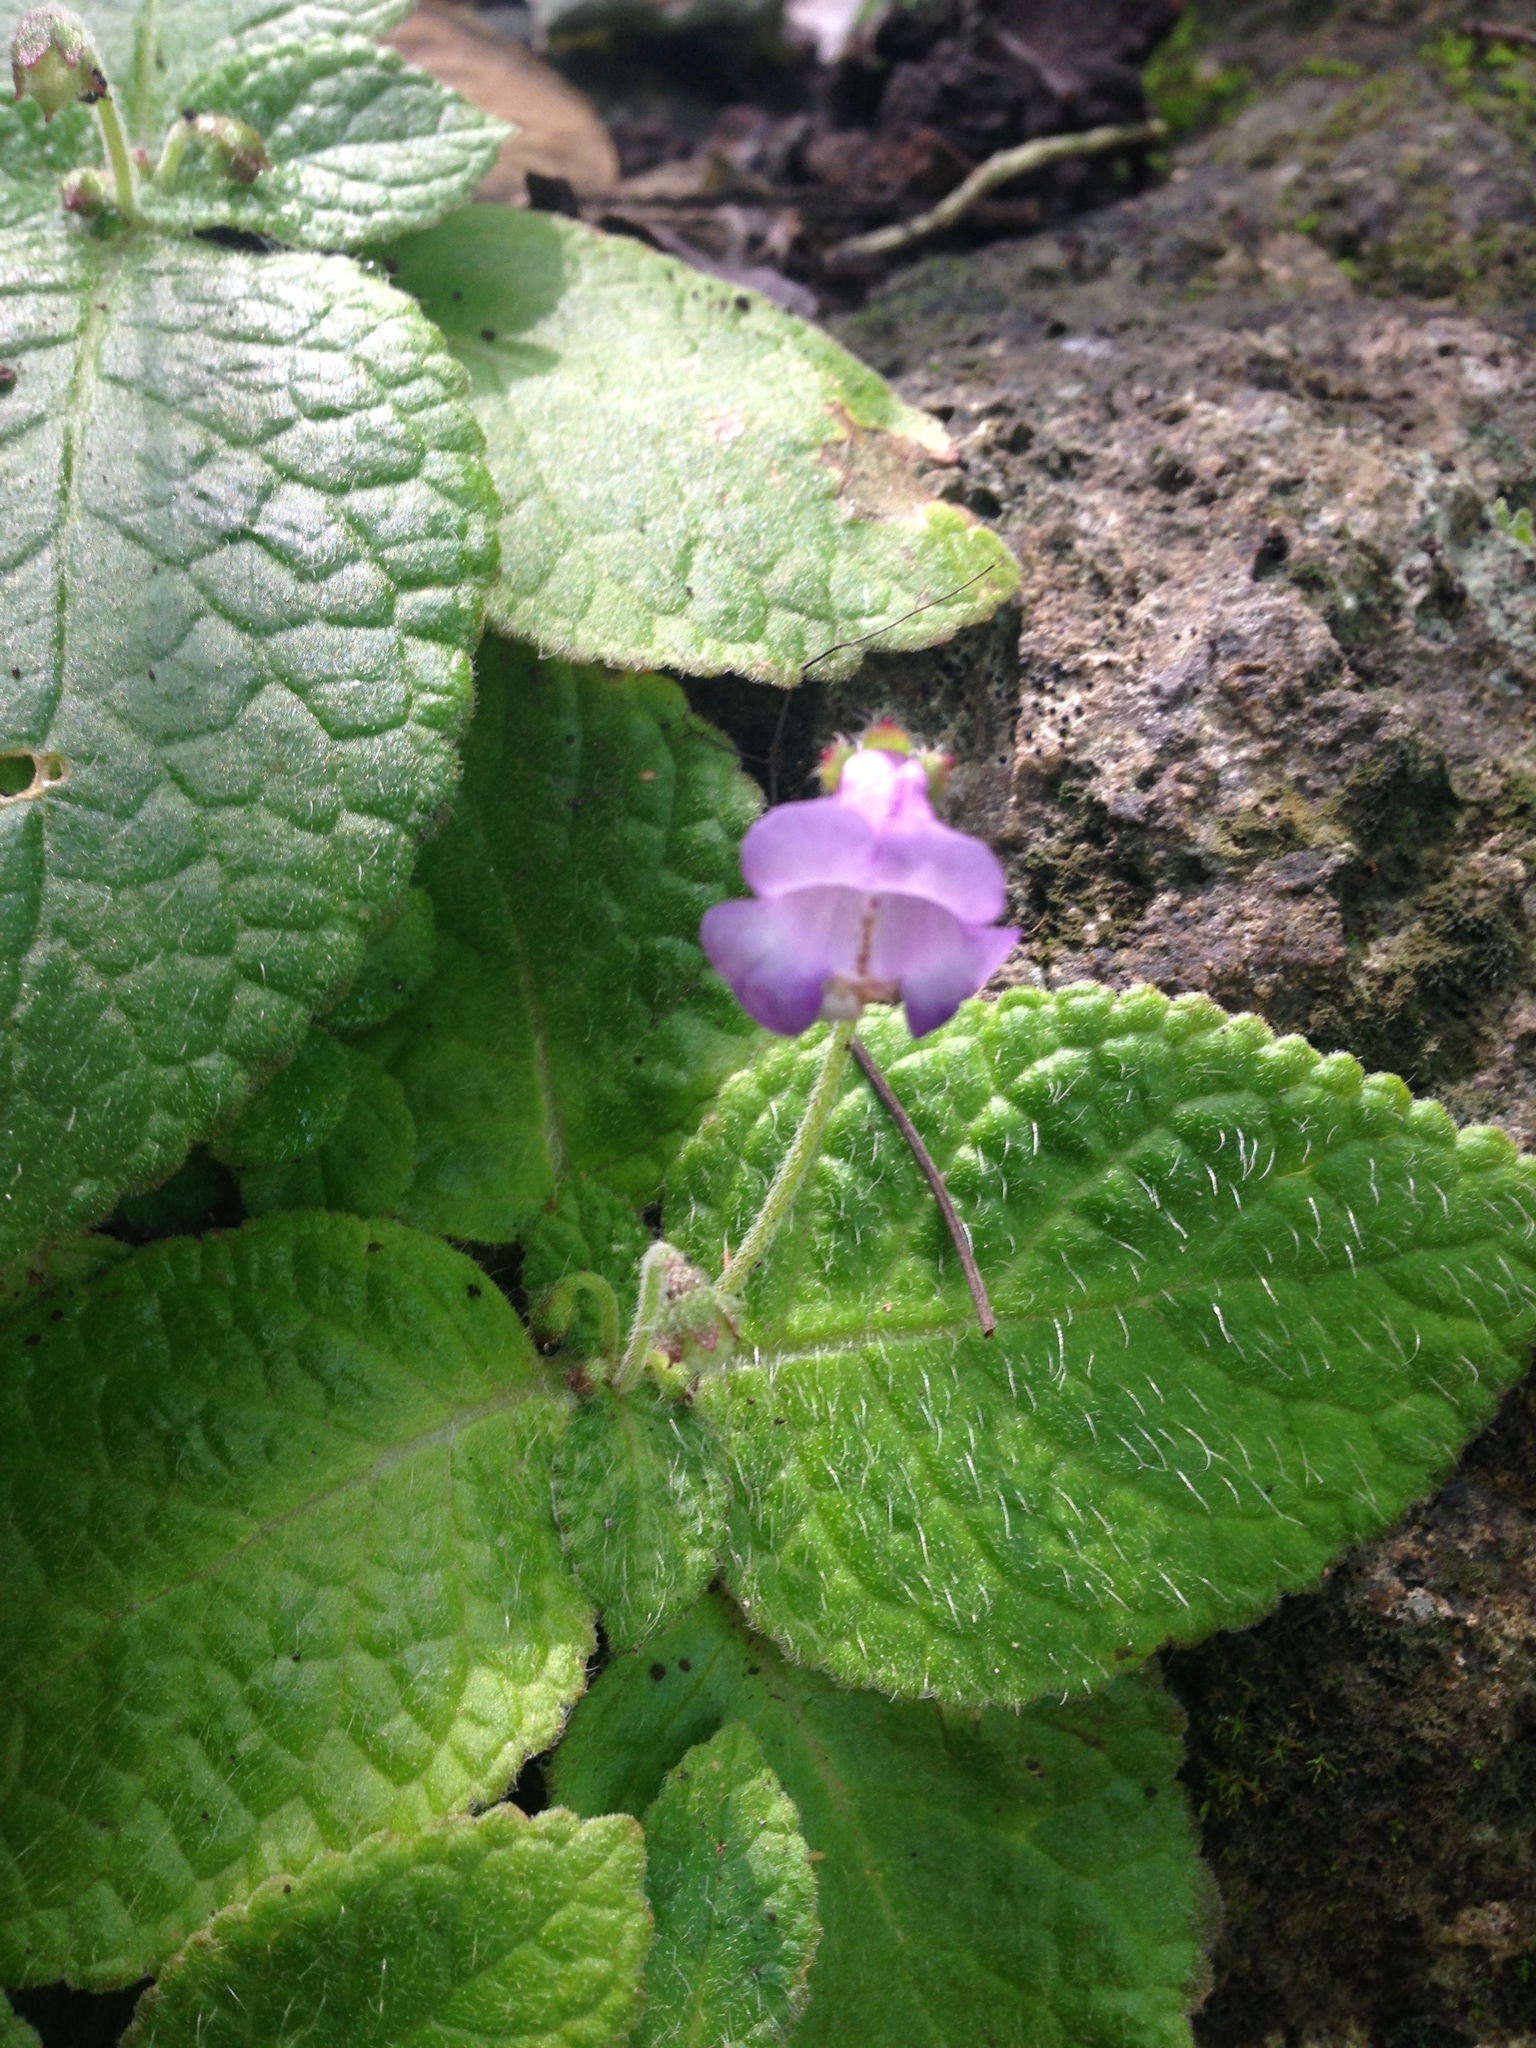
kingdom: Plantae
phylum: Tracheophyta
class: Magnoliopsida
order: Lamiales
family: Gesneriaceae
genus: Eucodonia
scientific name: Eucodonia andrieuxii
